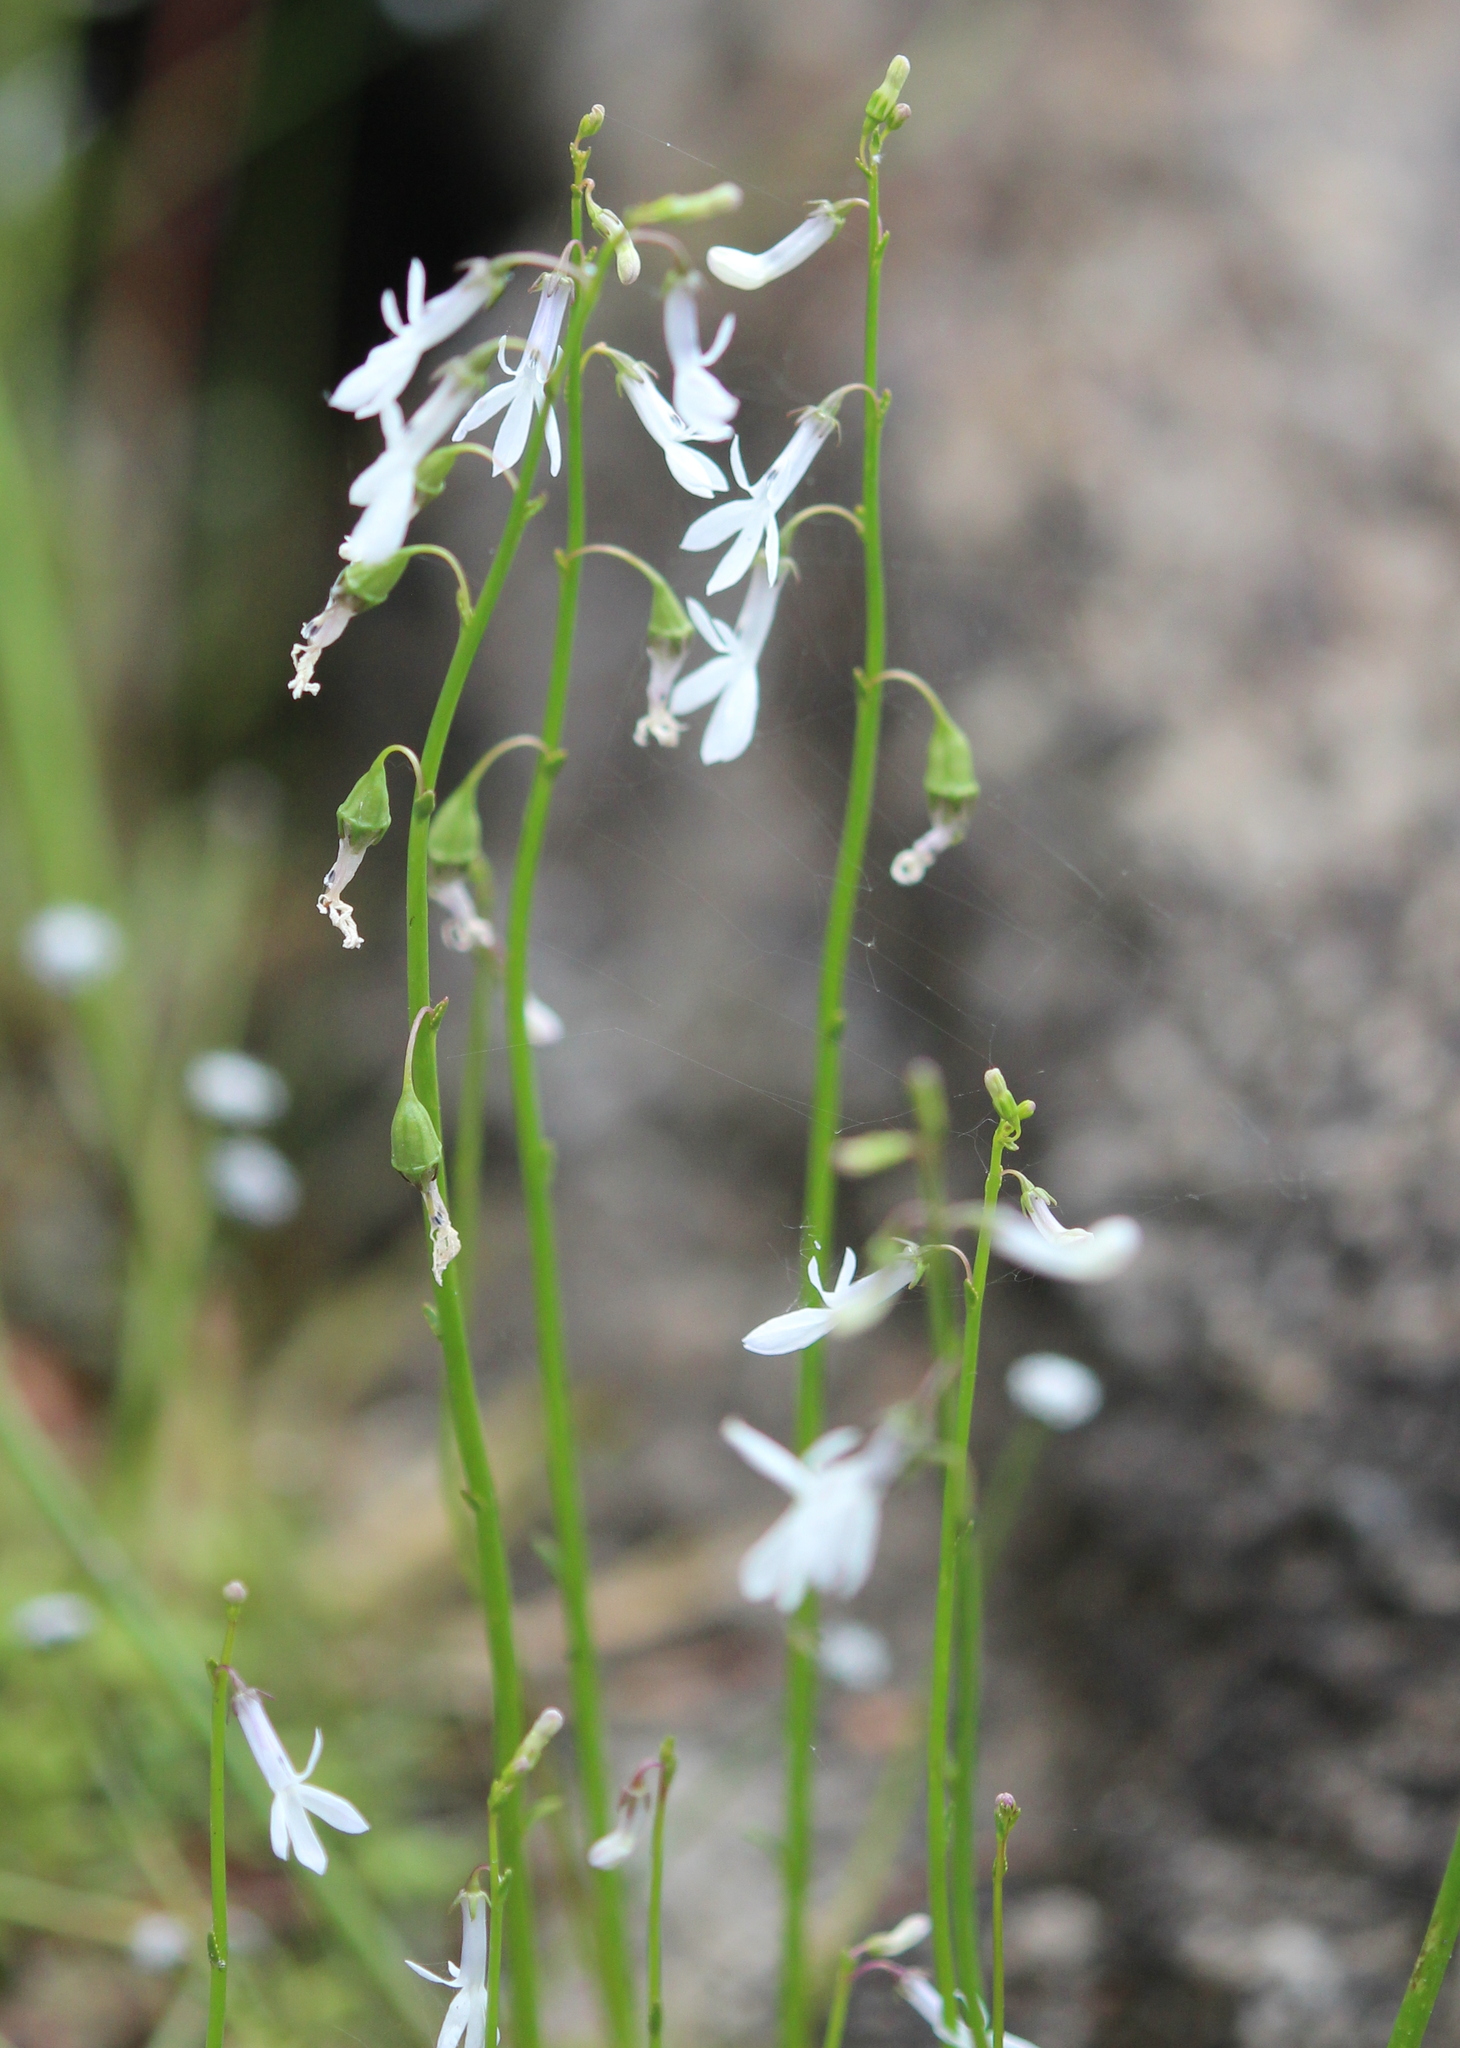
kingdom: Plantae
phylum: Tracheophyta
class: Magnoliopsida
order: Asterales
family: Campanulaceae
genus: Lobelia
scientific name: Lobelia dortmanna
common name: Water lobelia
